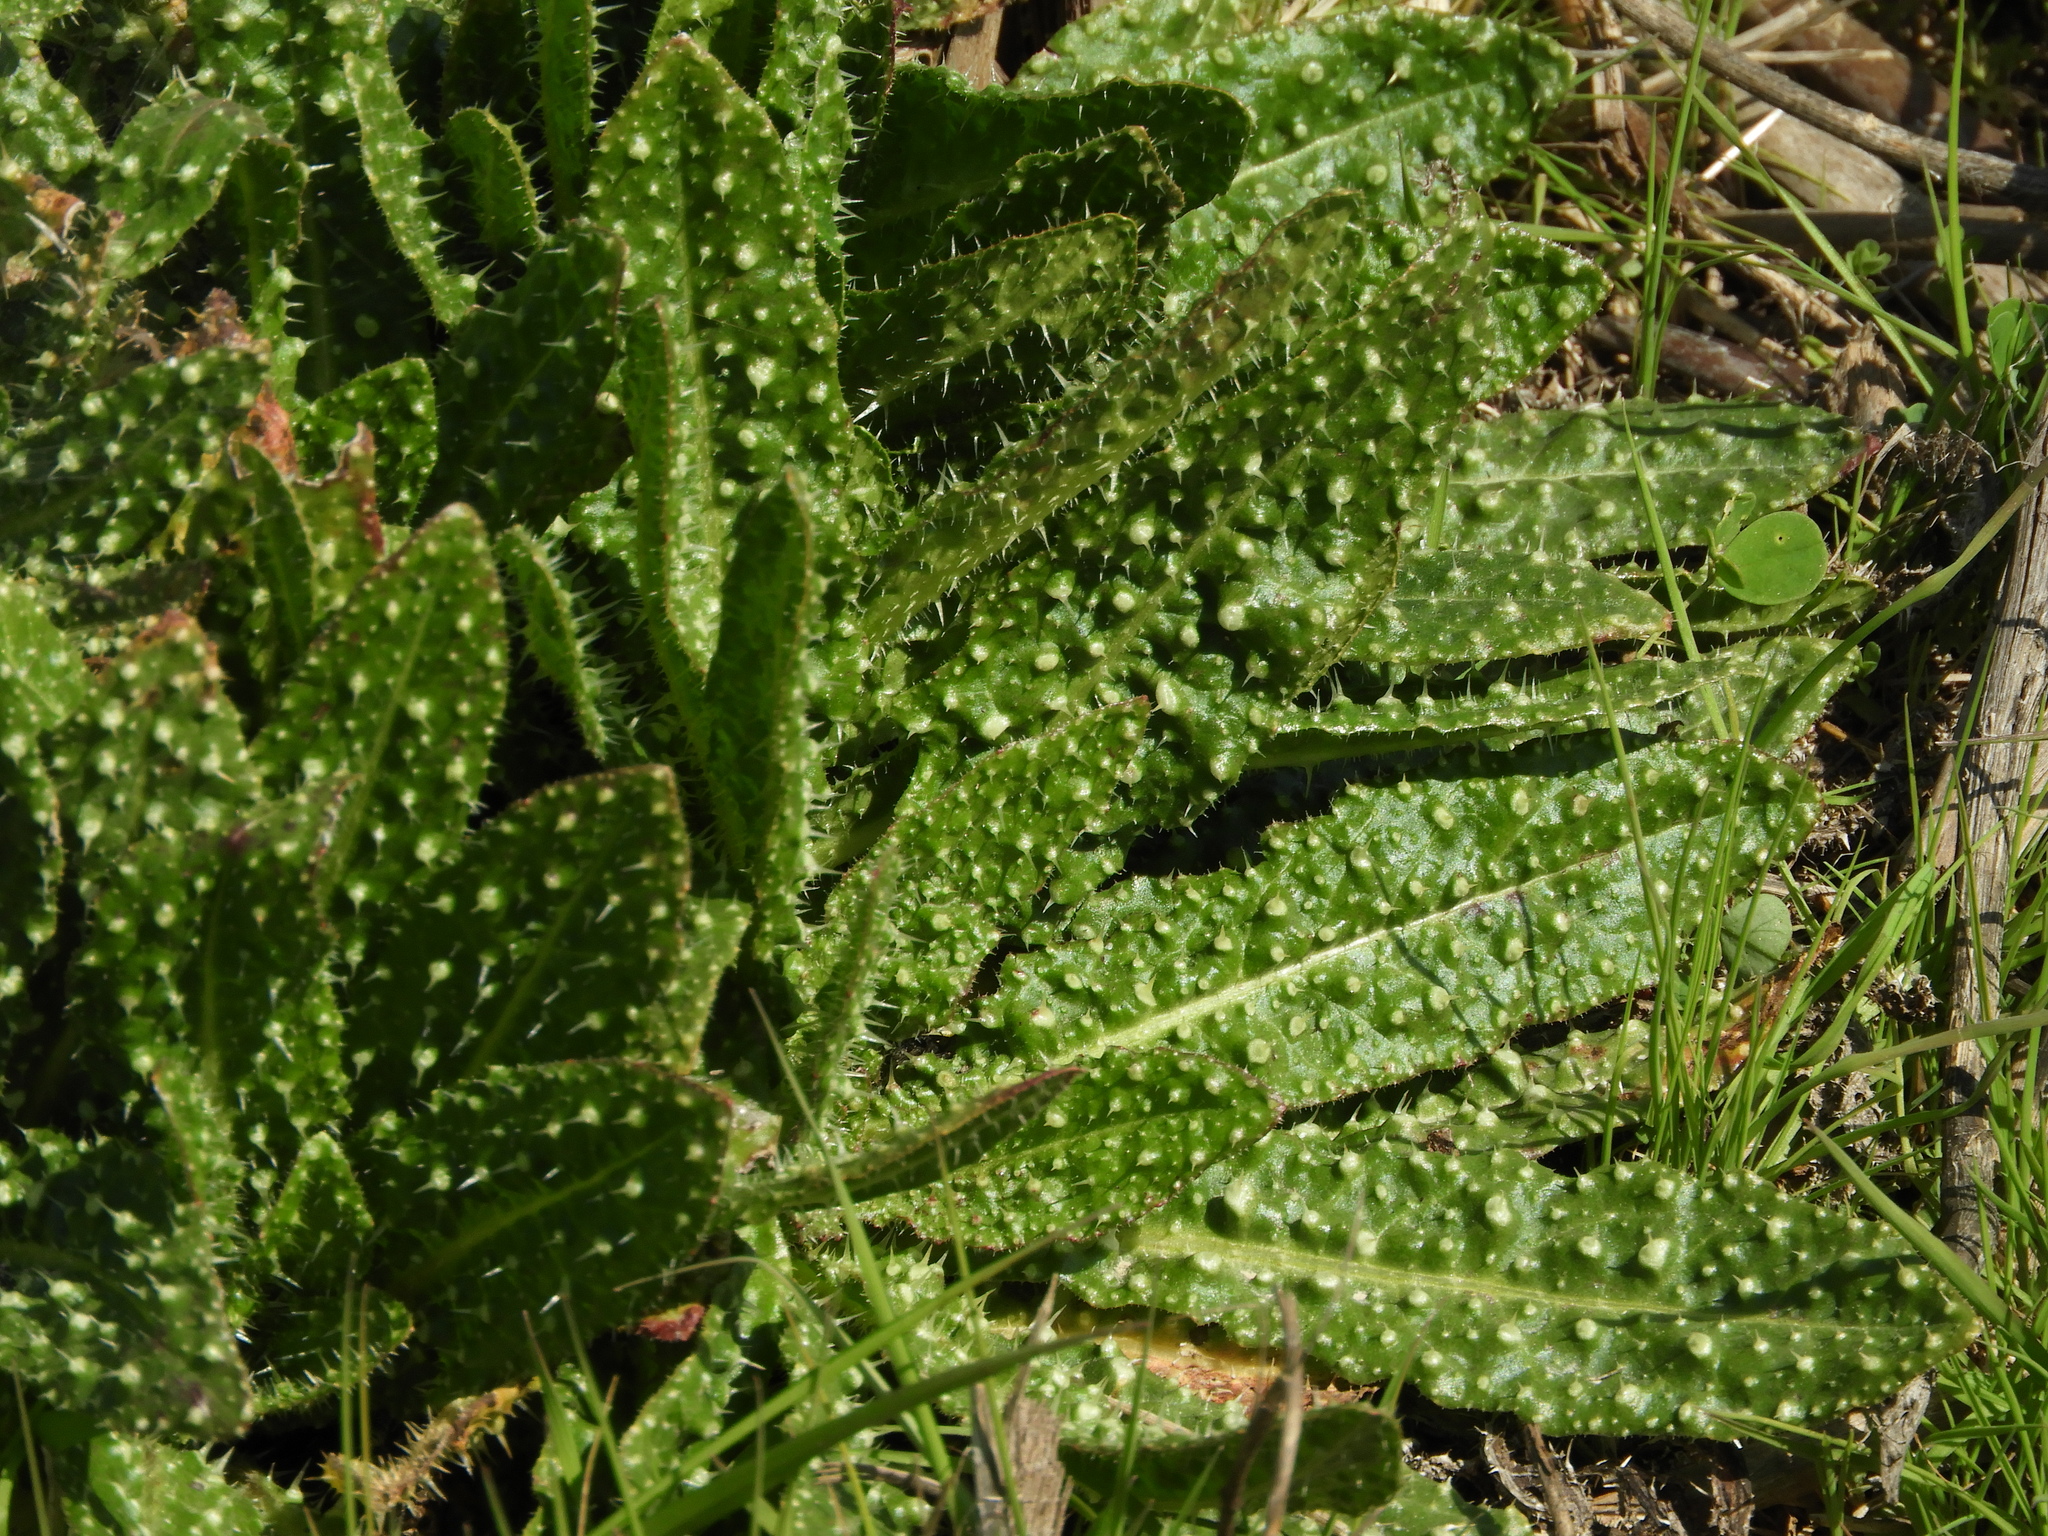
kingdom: Plantae
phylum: Tracheophyta
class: Magnoliopsida
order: Asterales
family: Asteraceae
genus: Helminthotheca
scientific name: Helminthotheca echioides
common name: Ox-tongue
